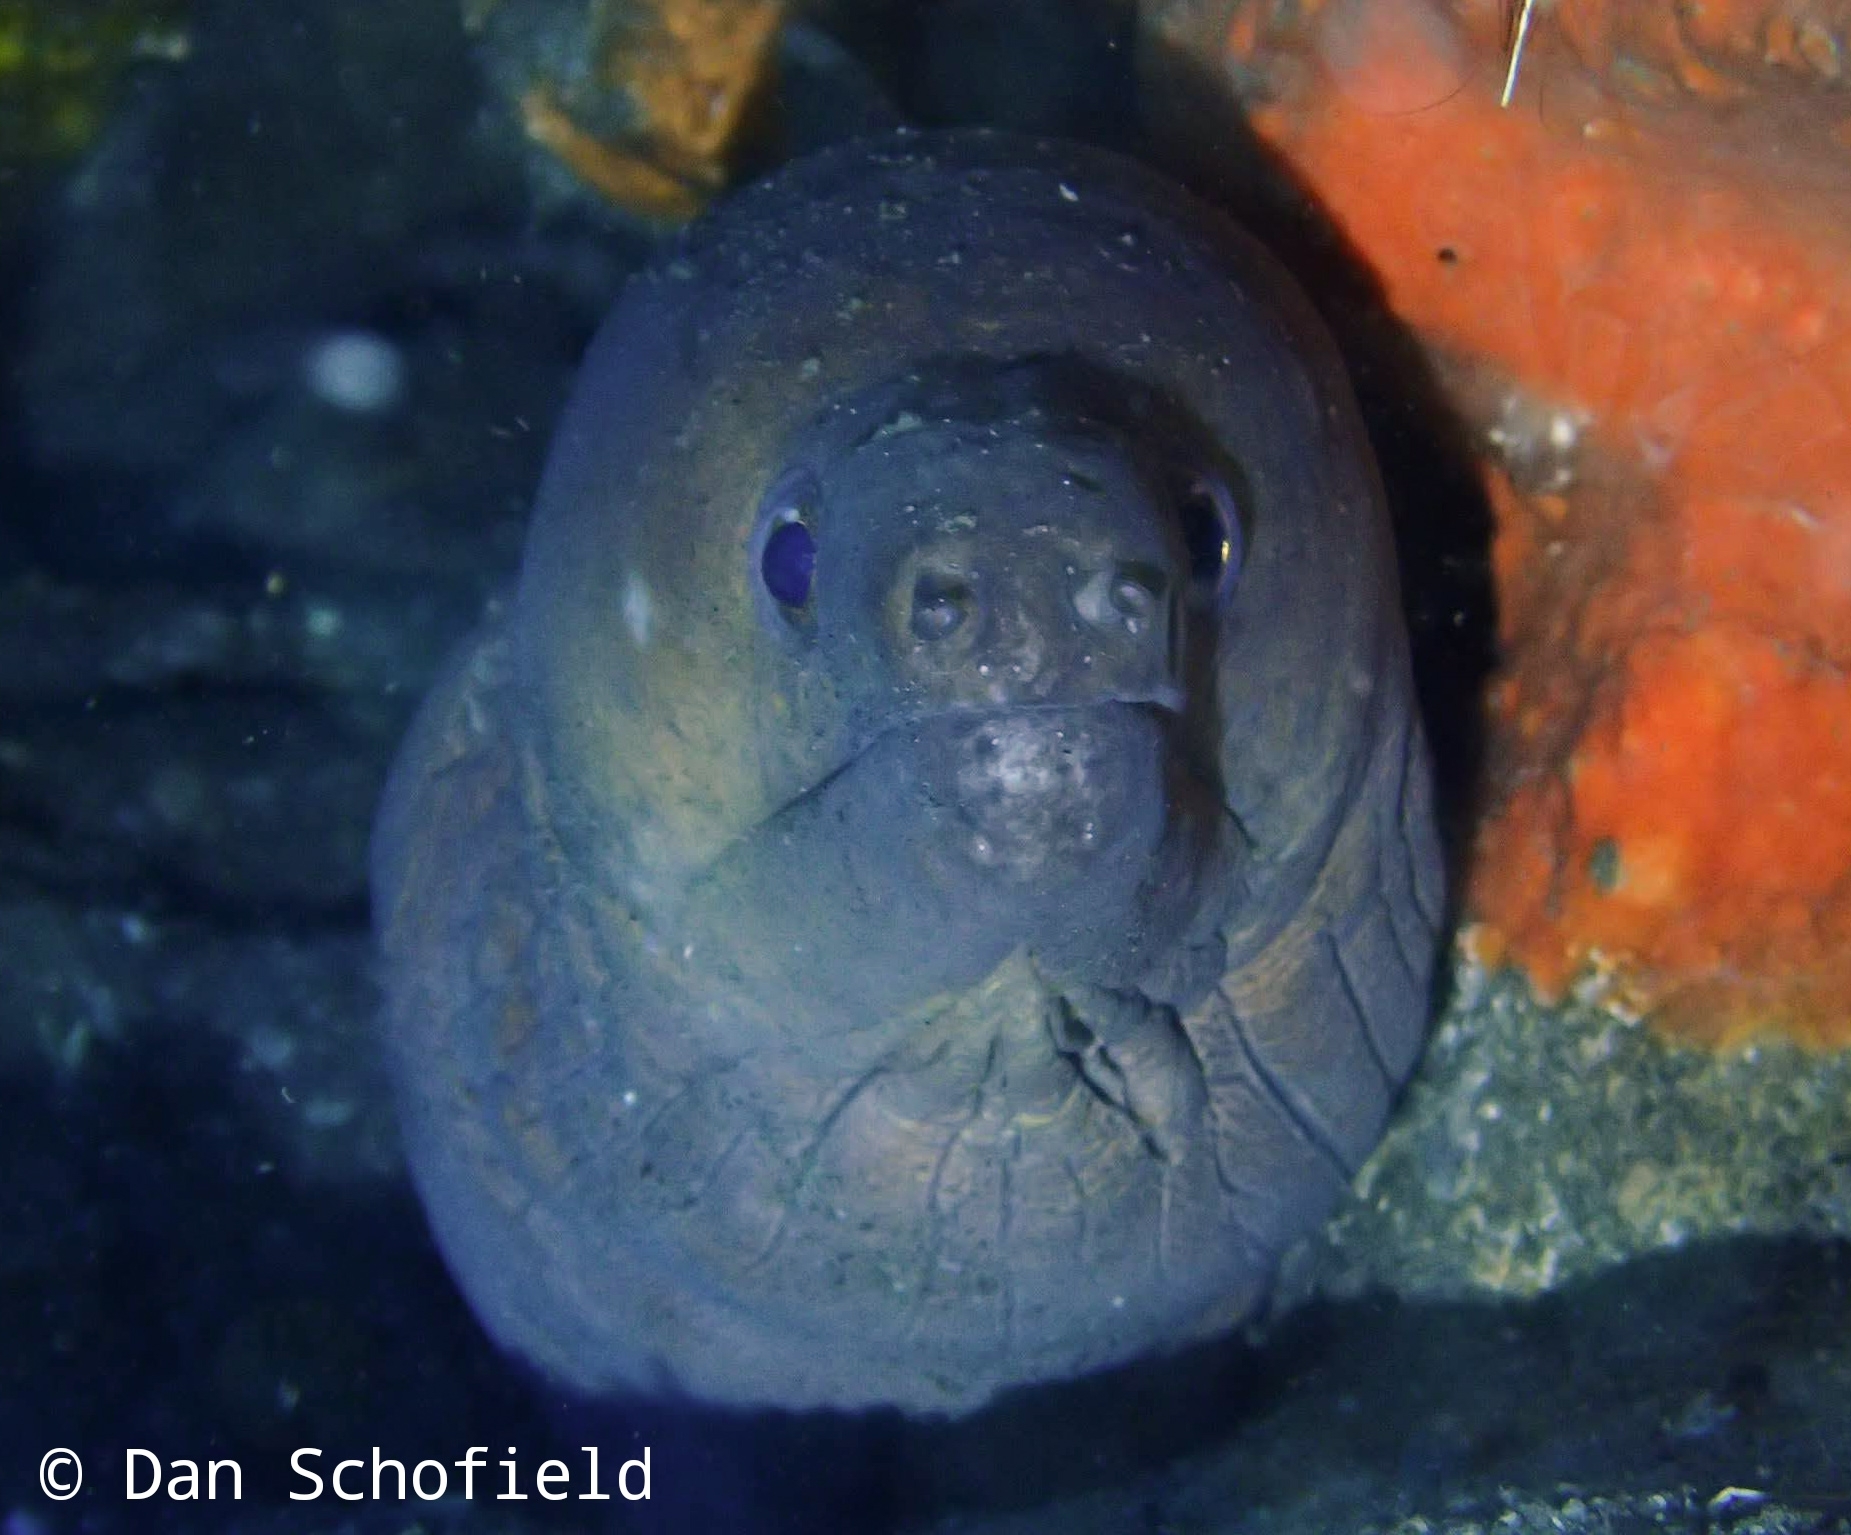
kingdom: Animalia
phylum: Chordata
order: Anguilliformes
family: Muraenidae
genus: Gymnothorax
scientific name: Gymnothorax javanicus
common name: Giant moray
